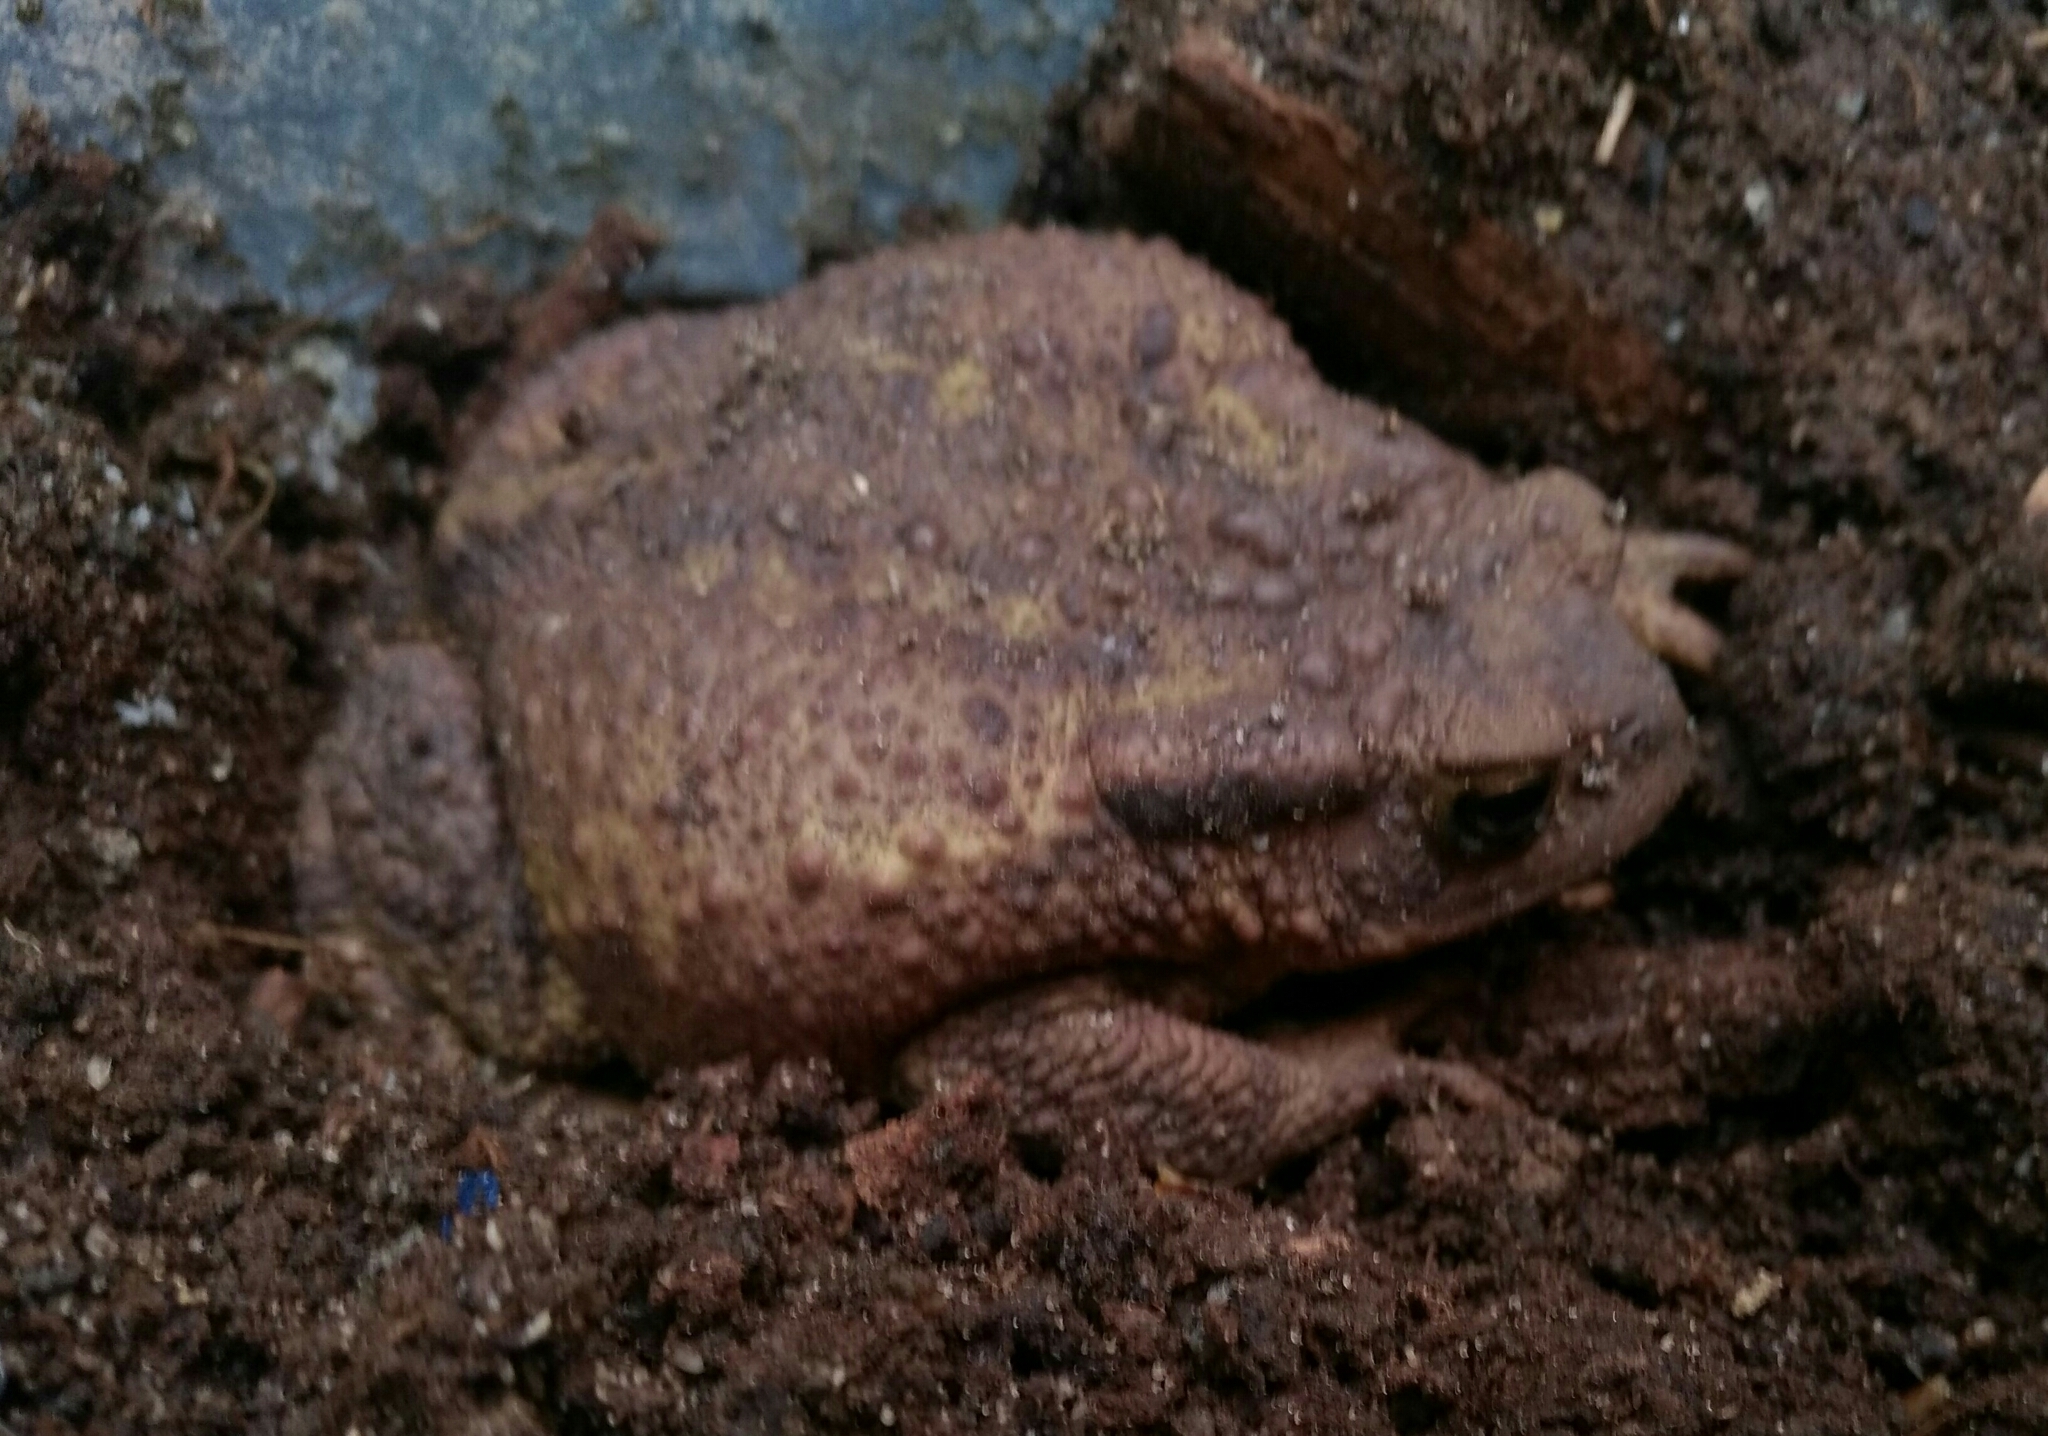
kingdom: Animalia
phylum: Chordata
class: Amphibia
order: Anura
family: Bufonidae
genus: Bufo
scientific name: Bufo bufo
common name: Common toad
